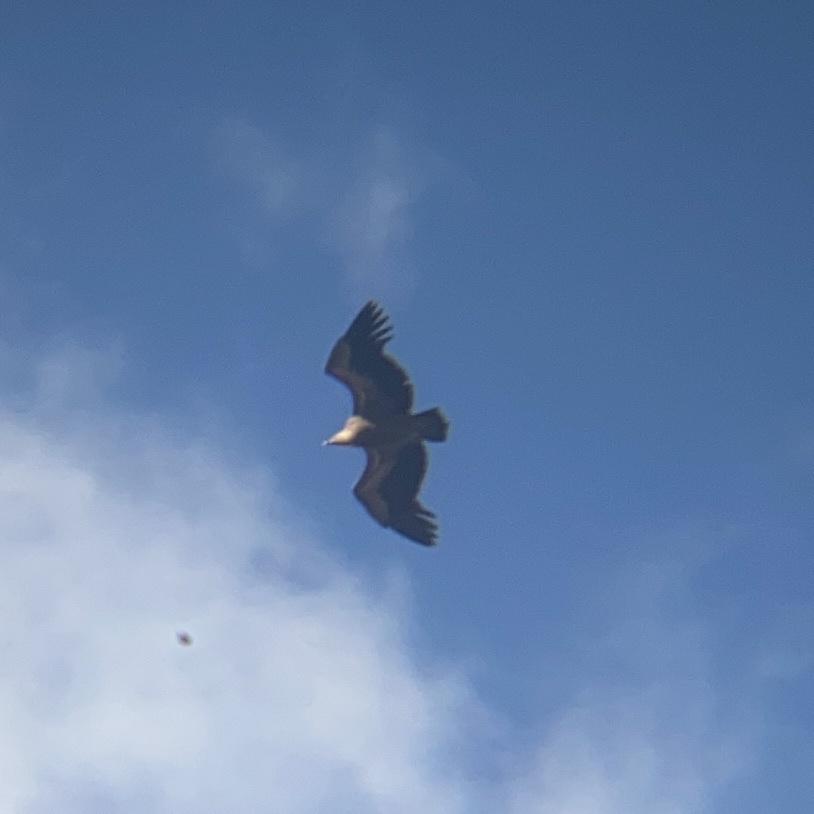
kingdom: Animalia
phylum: Chordata
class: Aves
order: Accipitriformes
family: Accipitridae
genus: Gyps
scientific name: Gyps fulvus
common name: Griffon vulture
